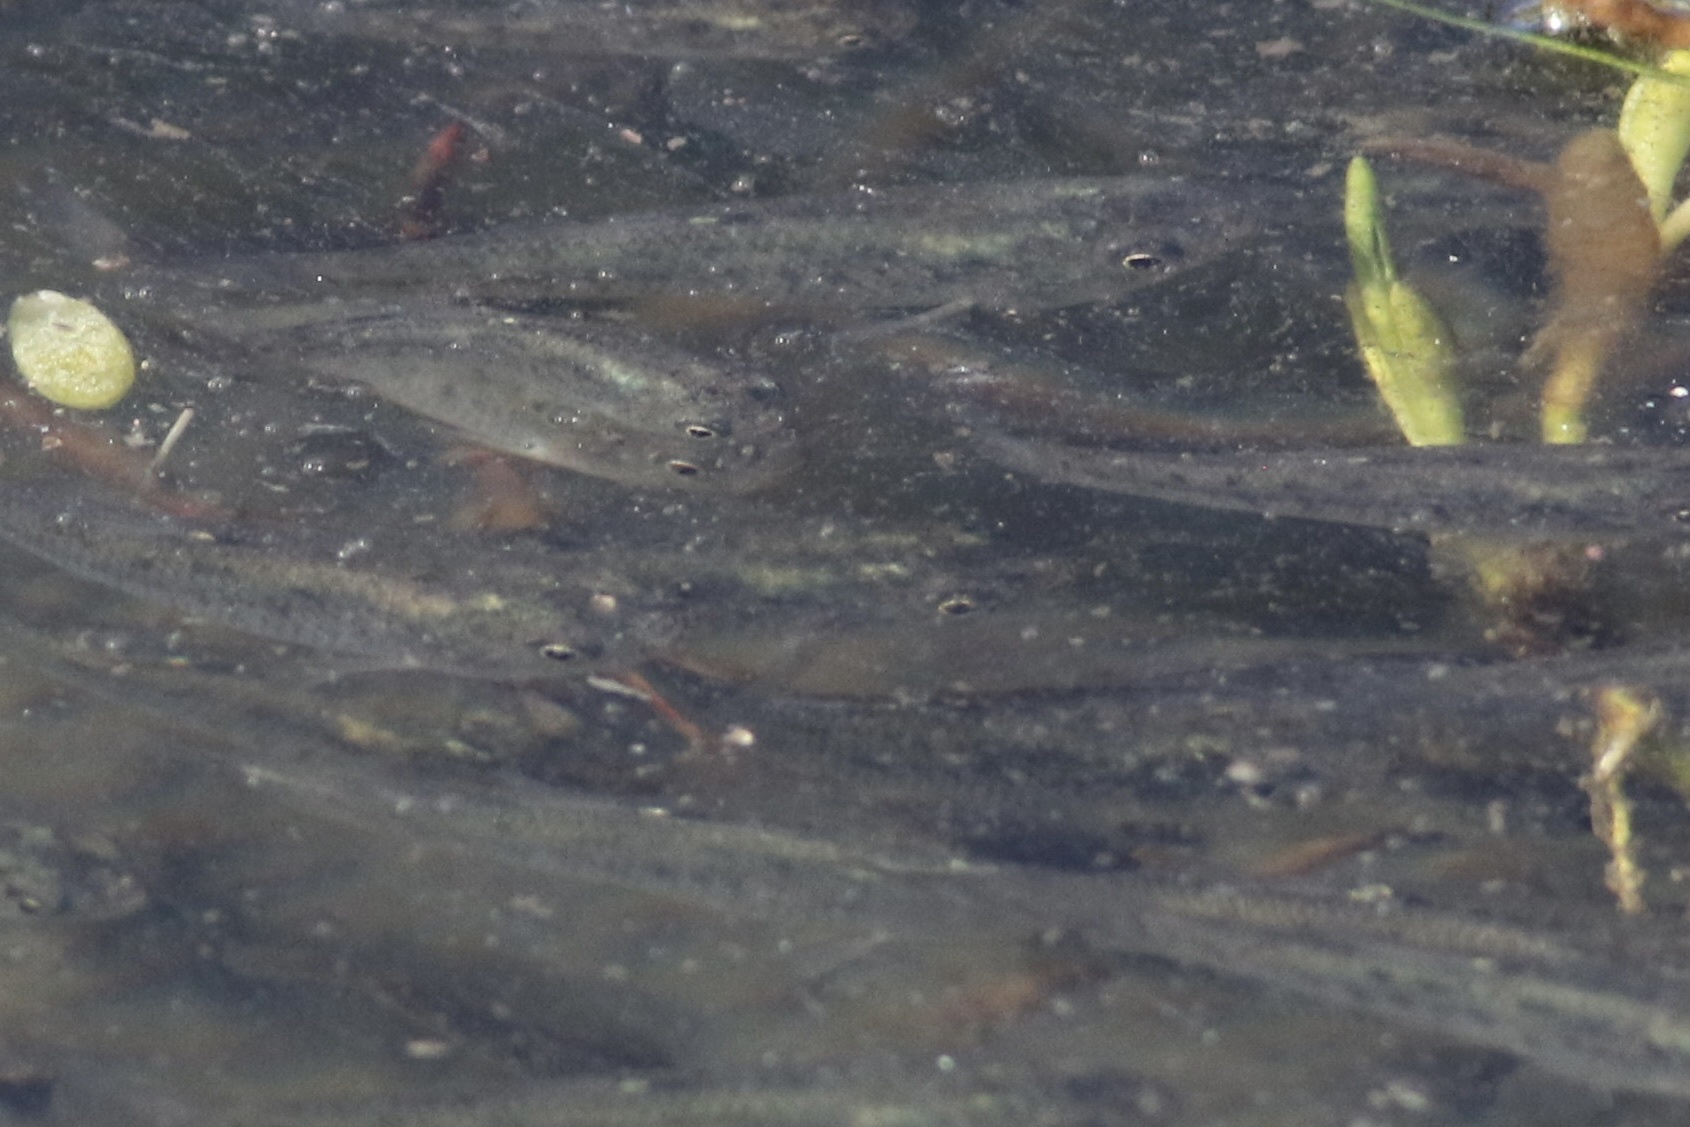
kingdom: Animalia
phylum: Chordata
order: Cyprinodontiformes
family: Fundulidae
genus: Fundulus
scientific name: Fundulus parvipinnis
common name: California killifish
